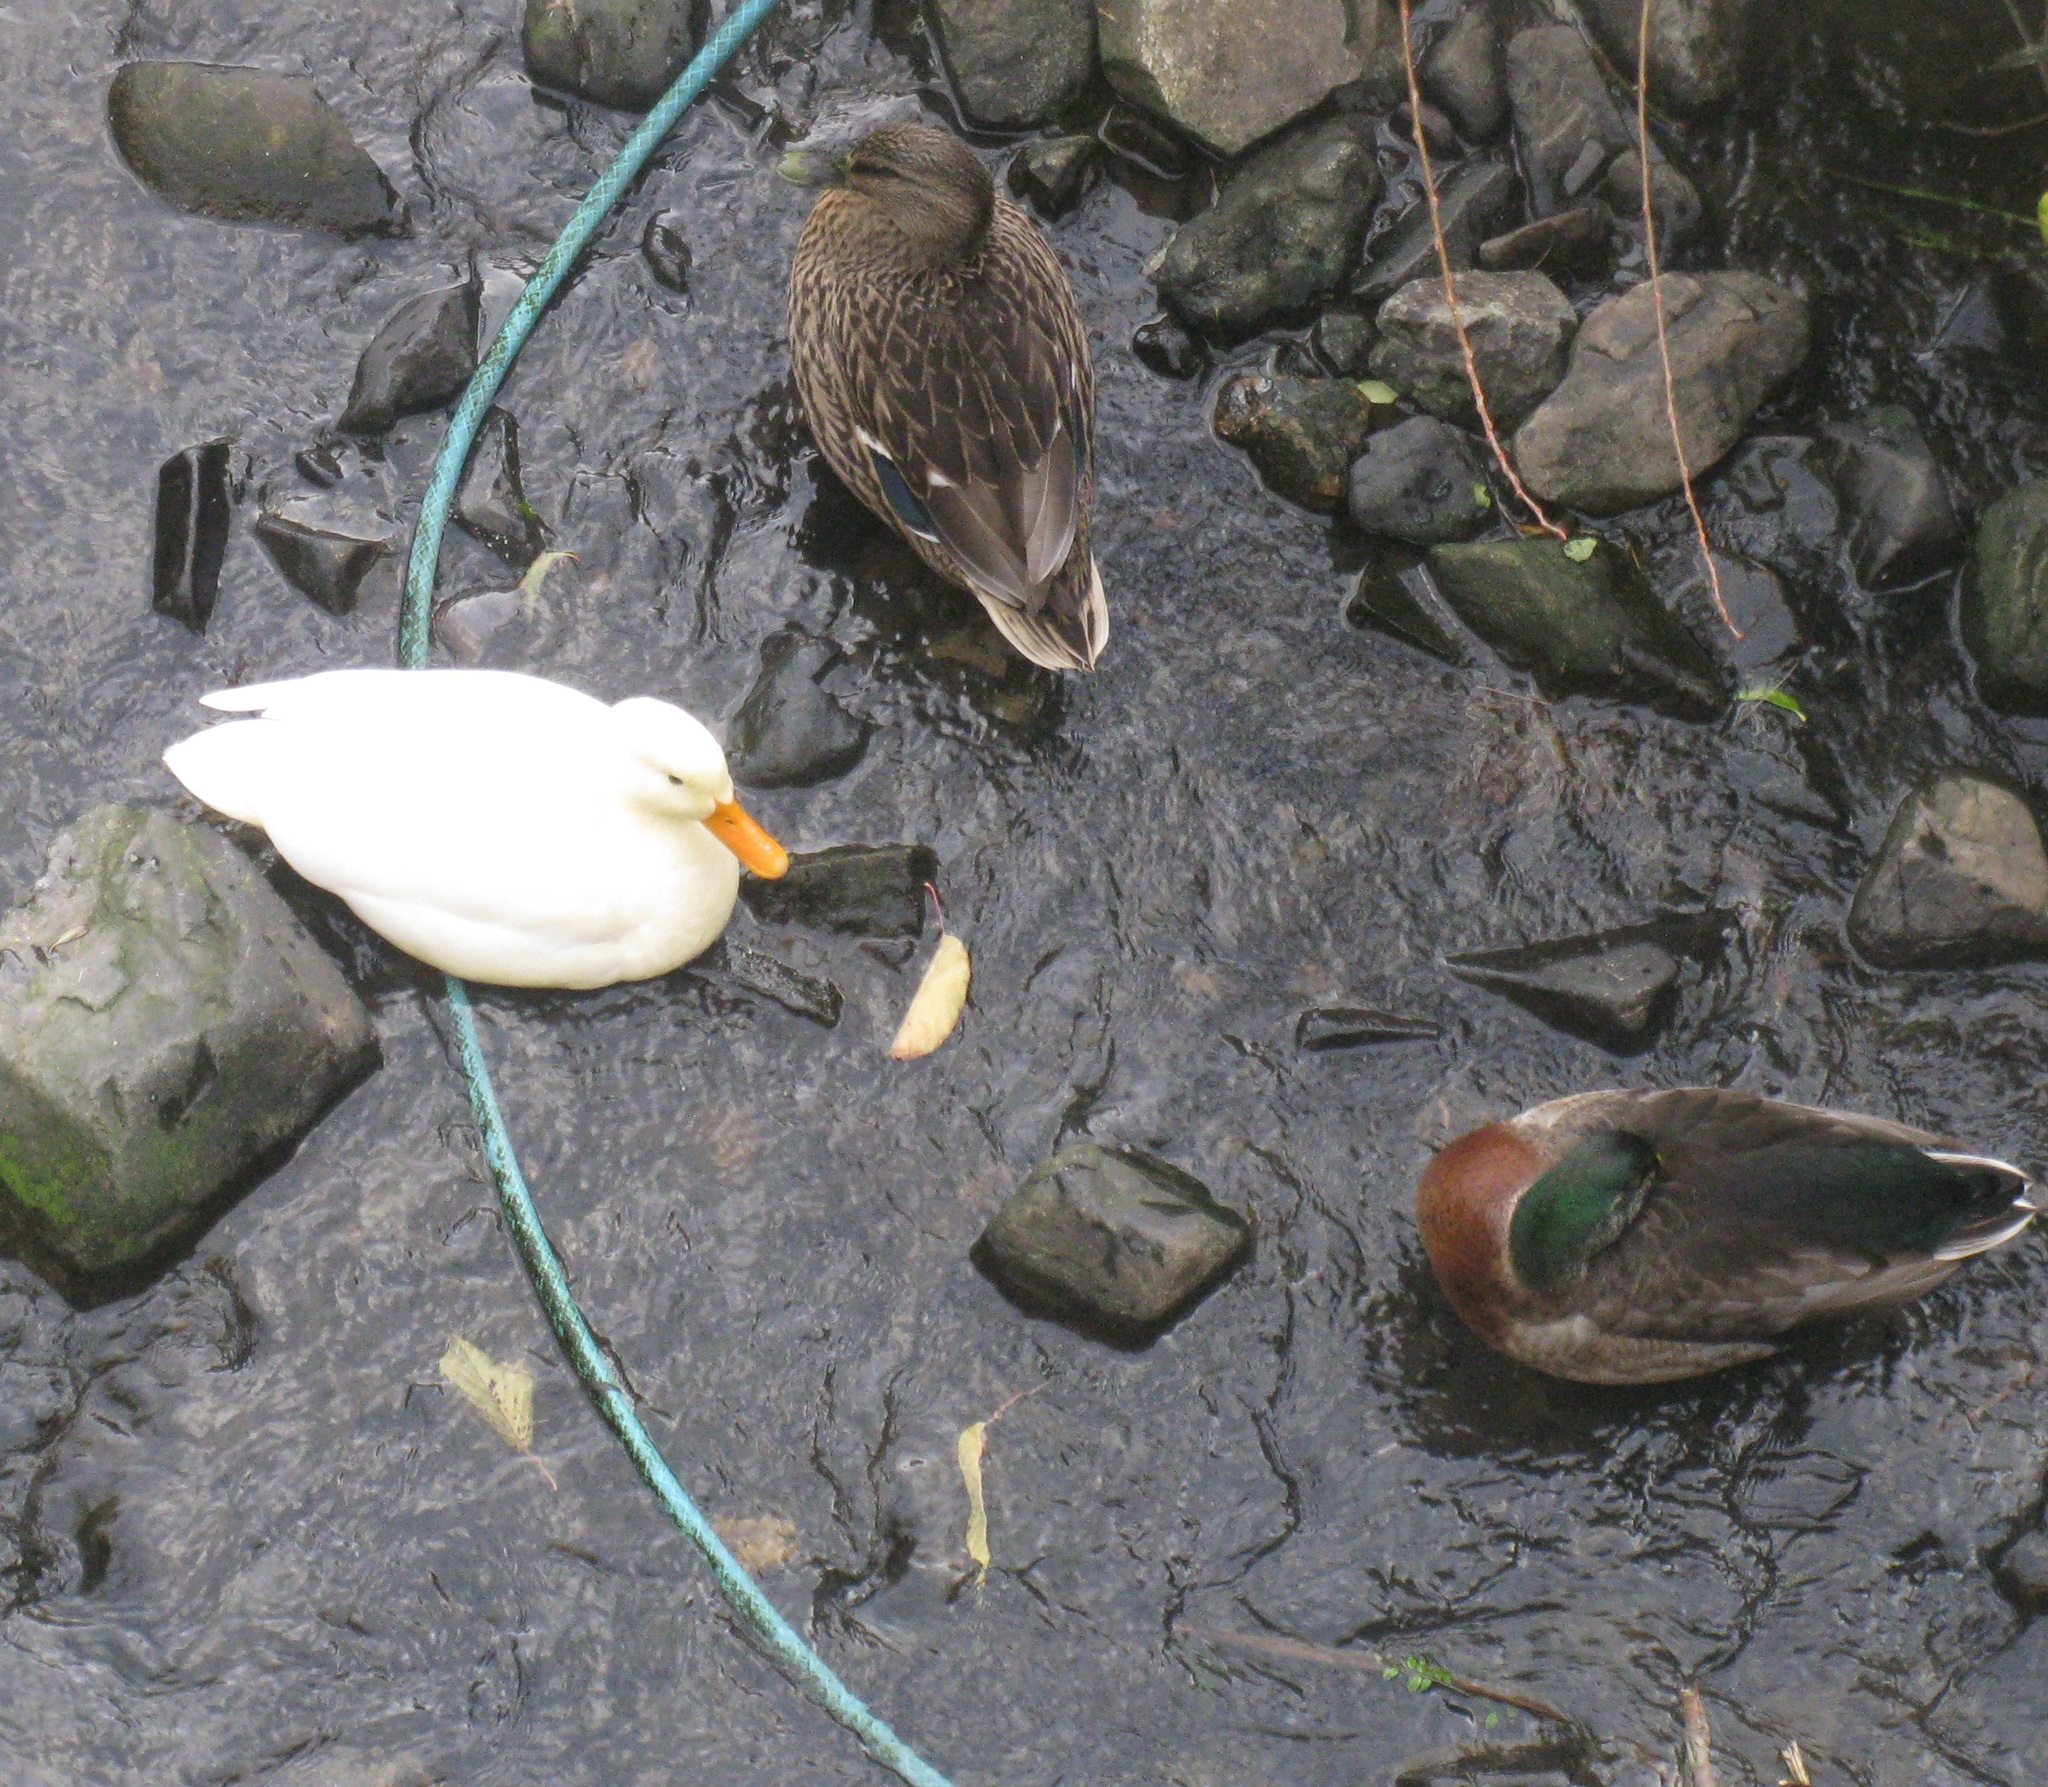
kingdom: Animalia
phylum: Chordata
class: Aves
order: Anseriformes
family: Anatidae
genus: Anas
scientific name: Anas
